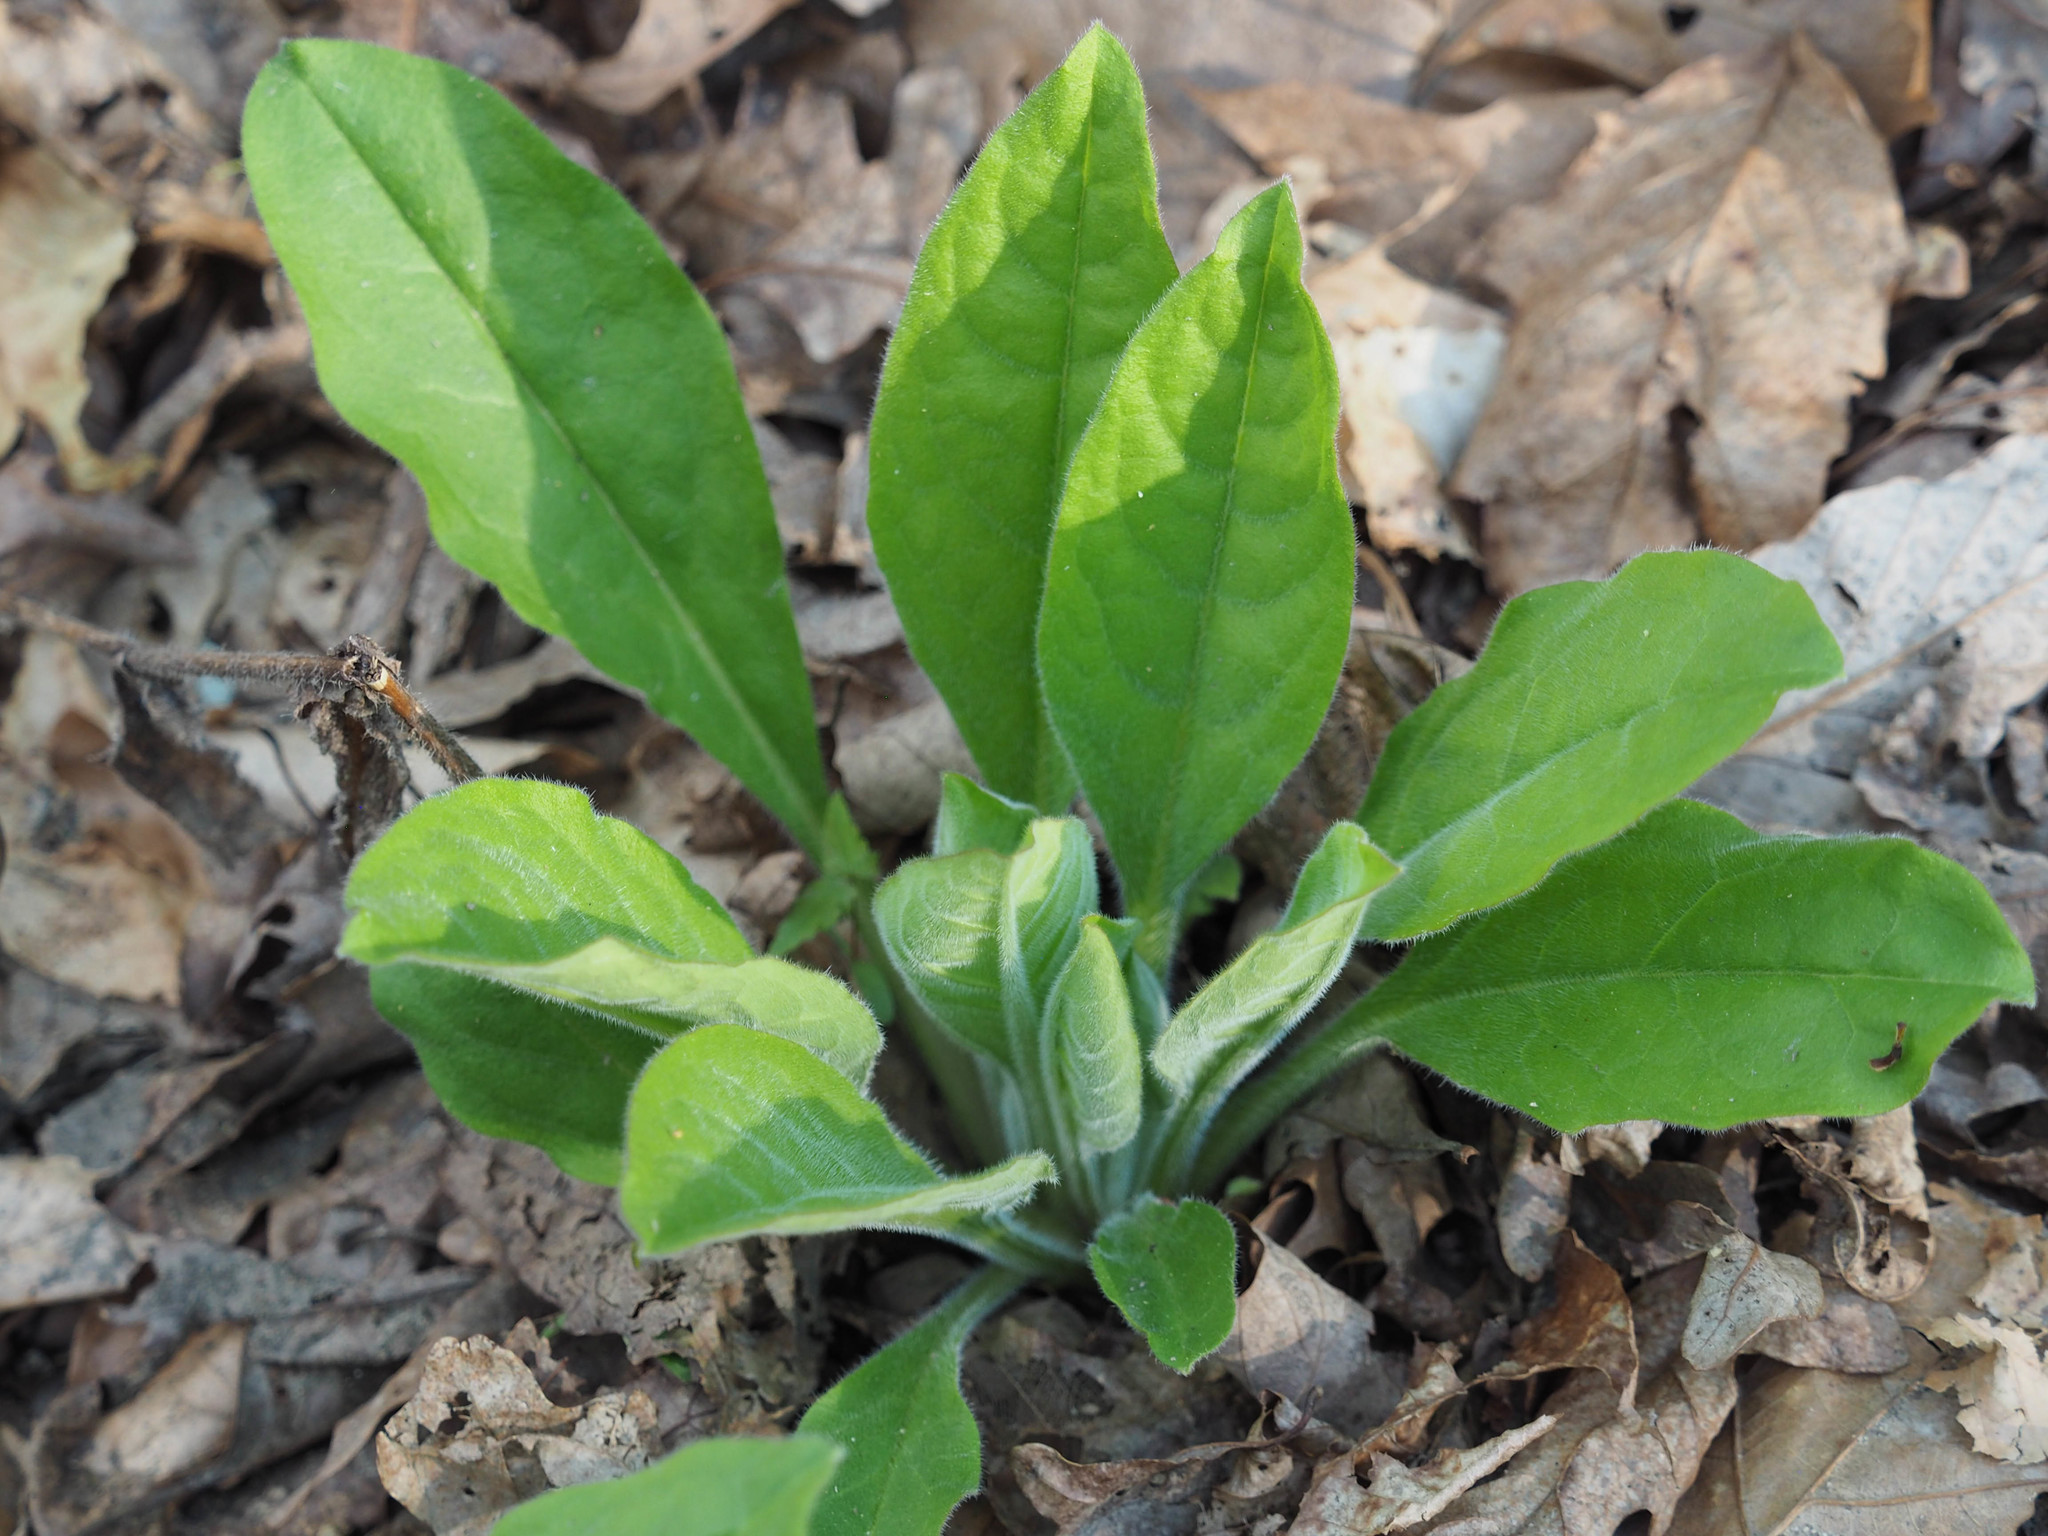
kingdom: Plantae
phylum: Tracheophyta
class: Magnoliopsida
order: Boraginales
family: Boraginaceae
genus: Andersonglossum
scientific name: Andersonglossum virginianum
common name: Wild comfrey
